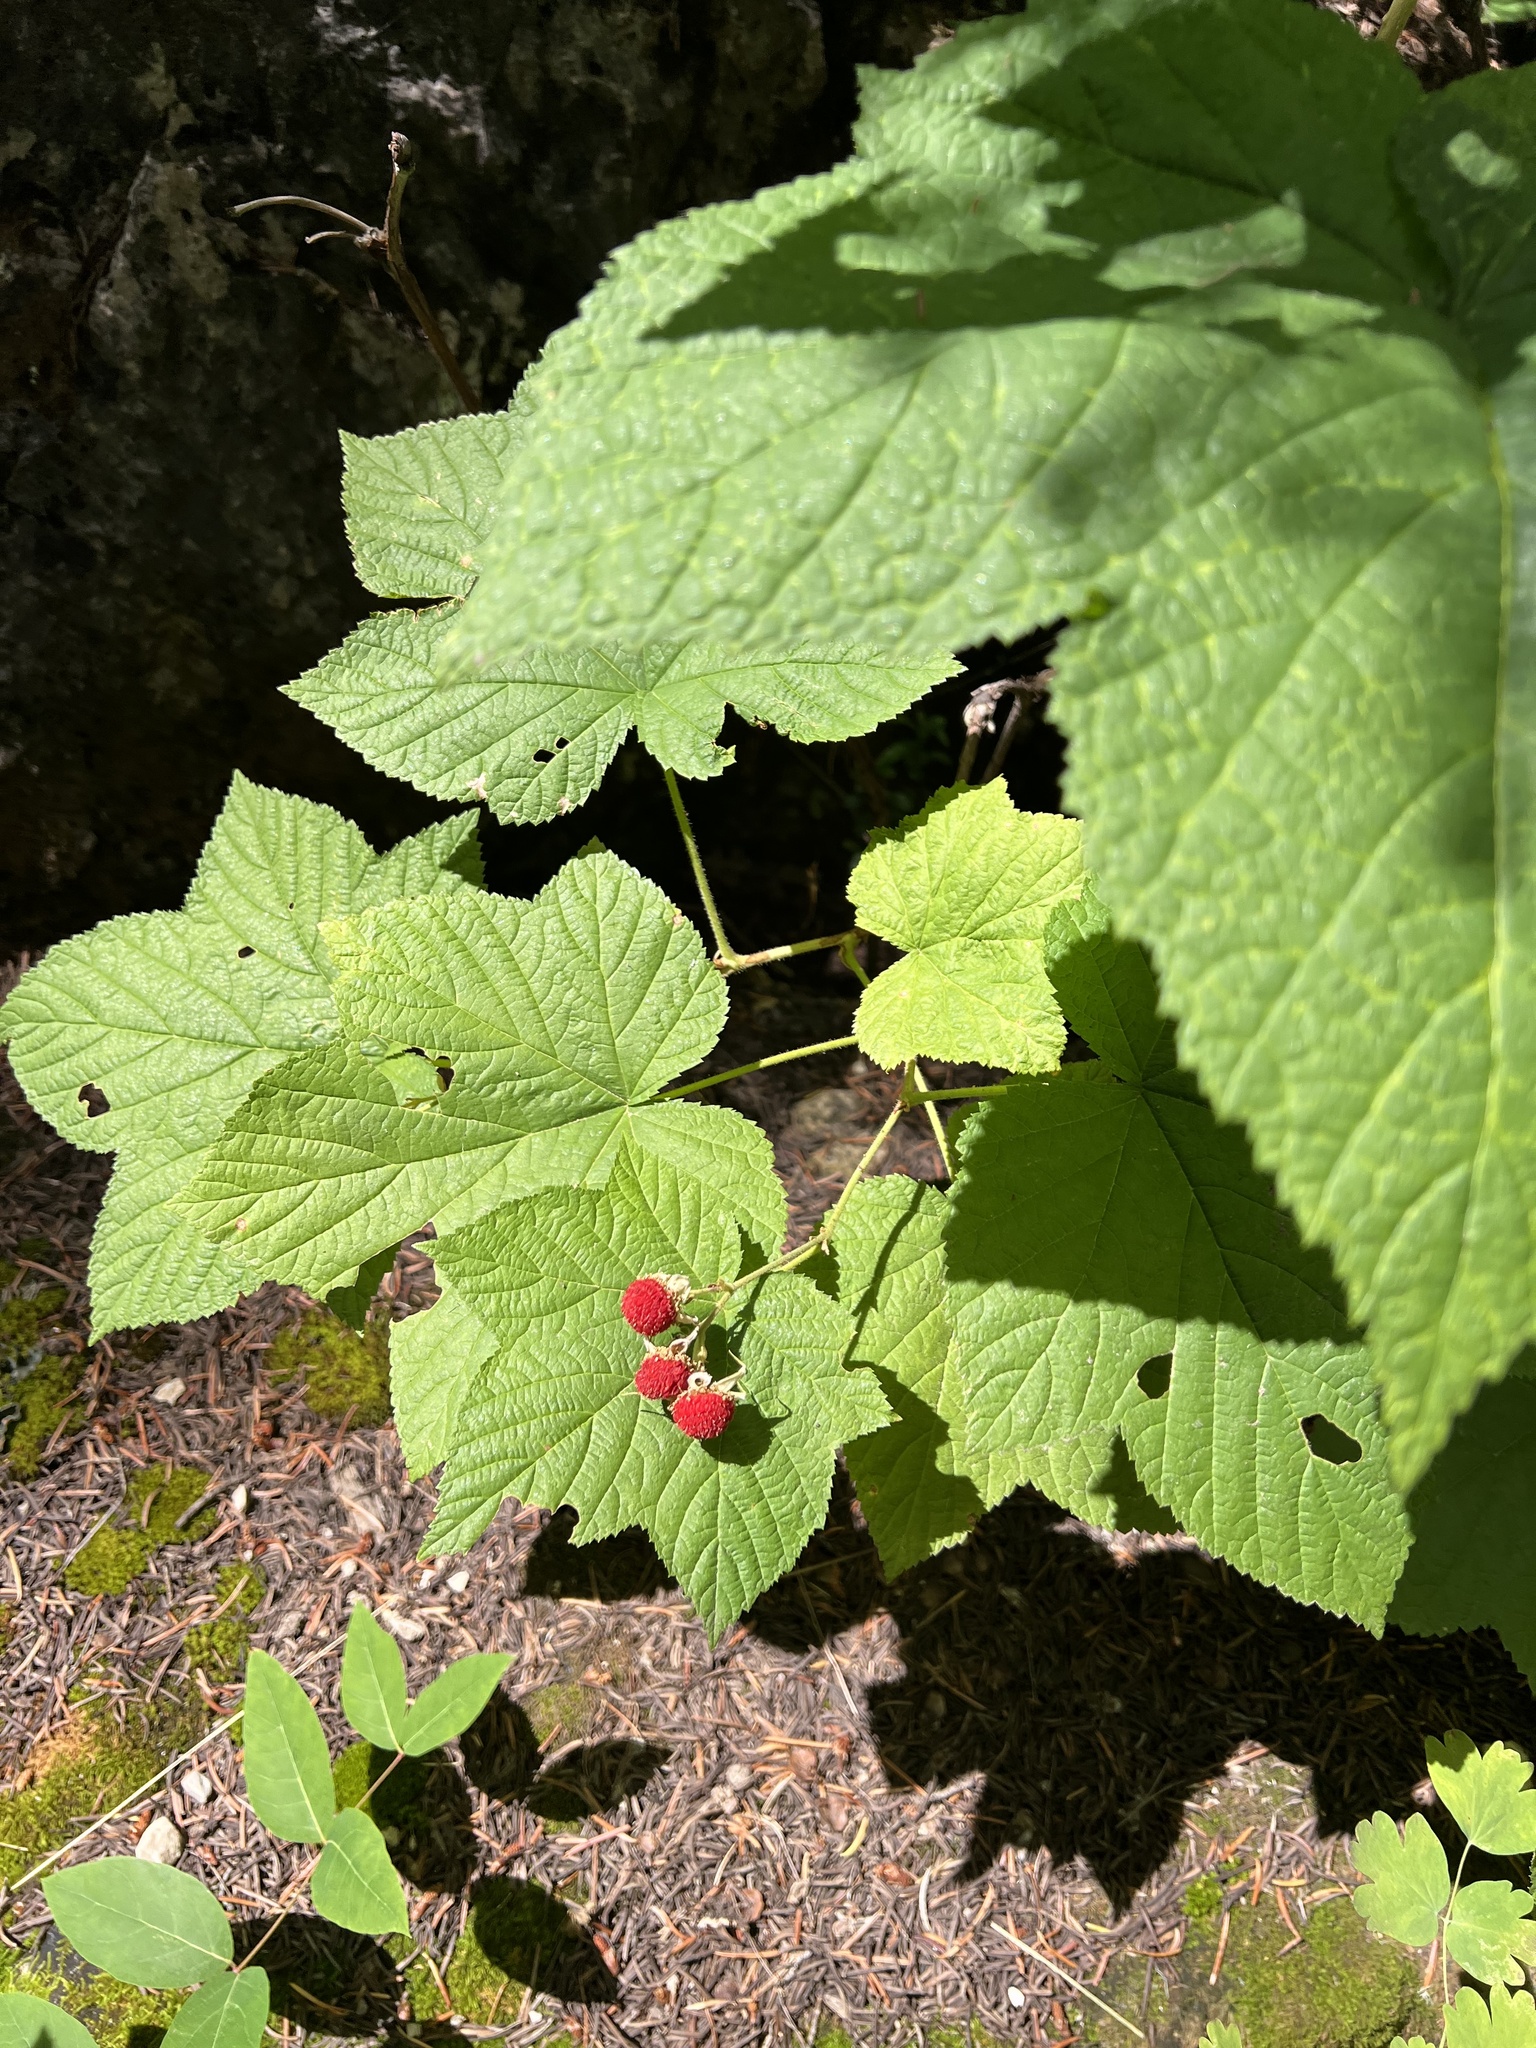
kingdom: Plantae
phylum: Tracheophyta
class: Magnoliopsida
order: Rosales
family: Rosaceae
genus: Rubus
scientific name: Rubus parviflorus
